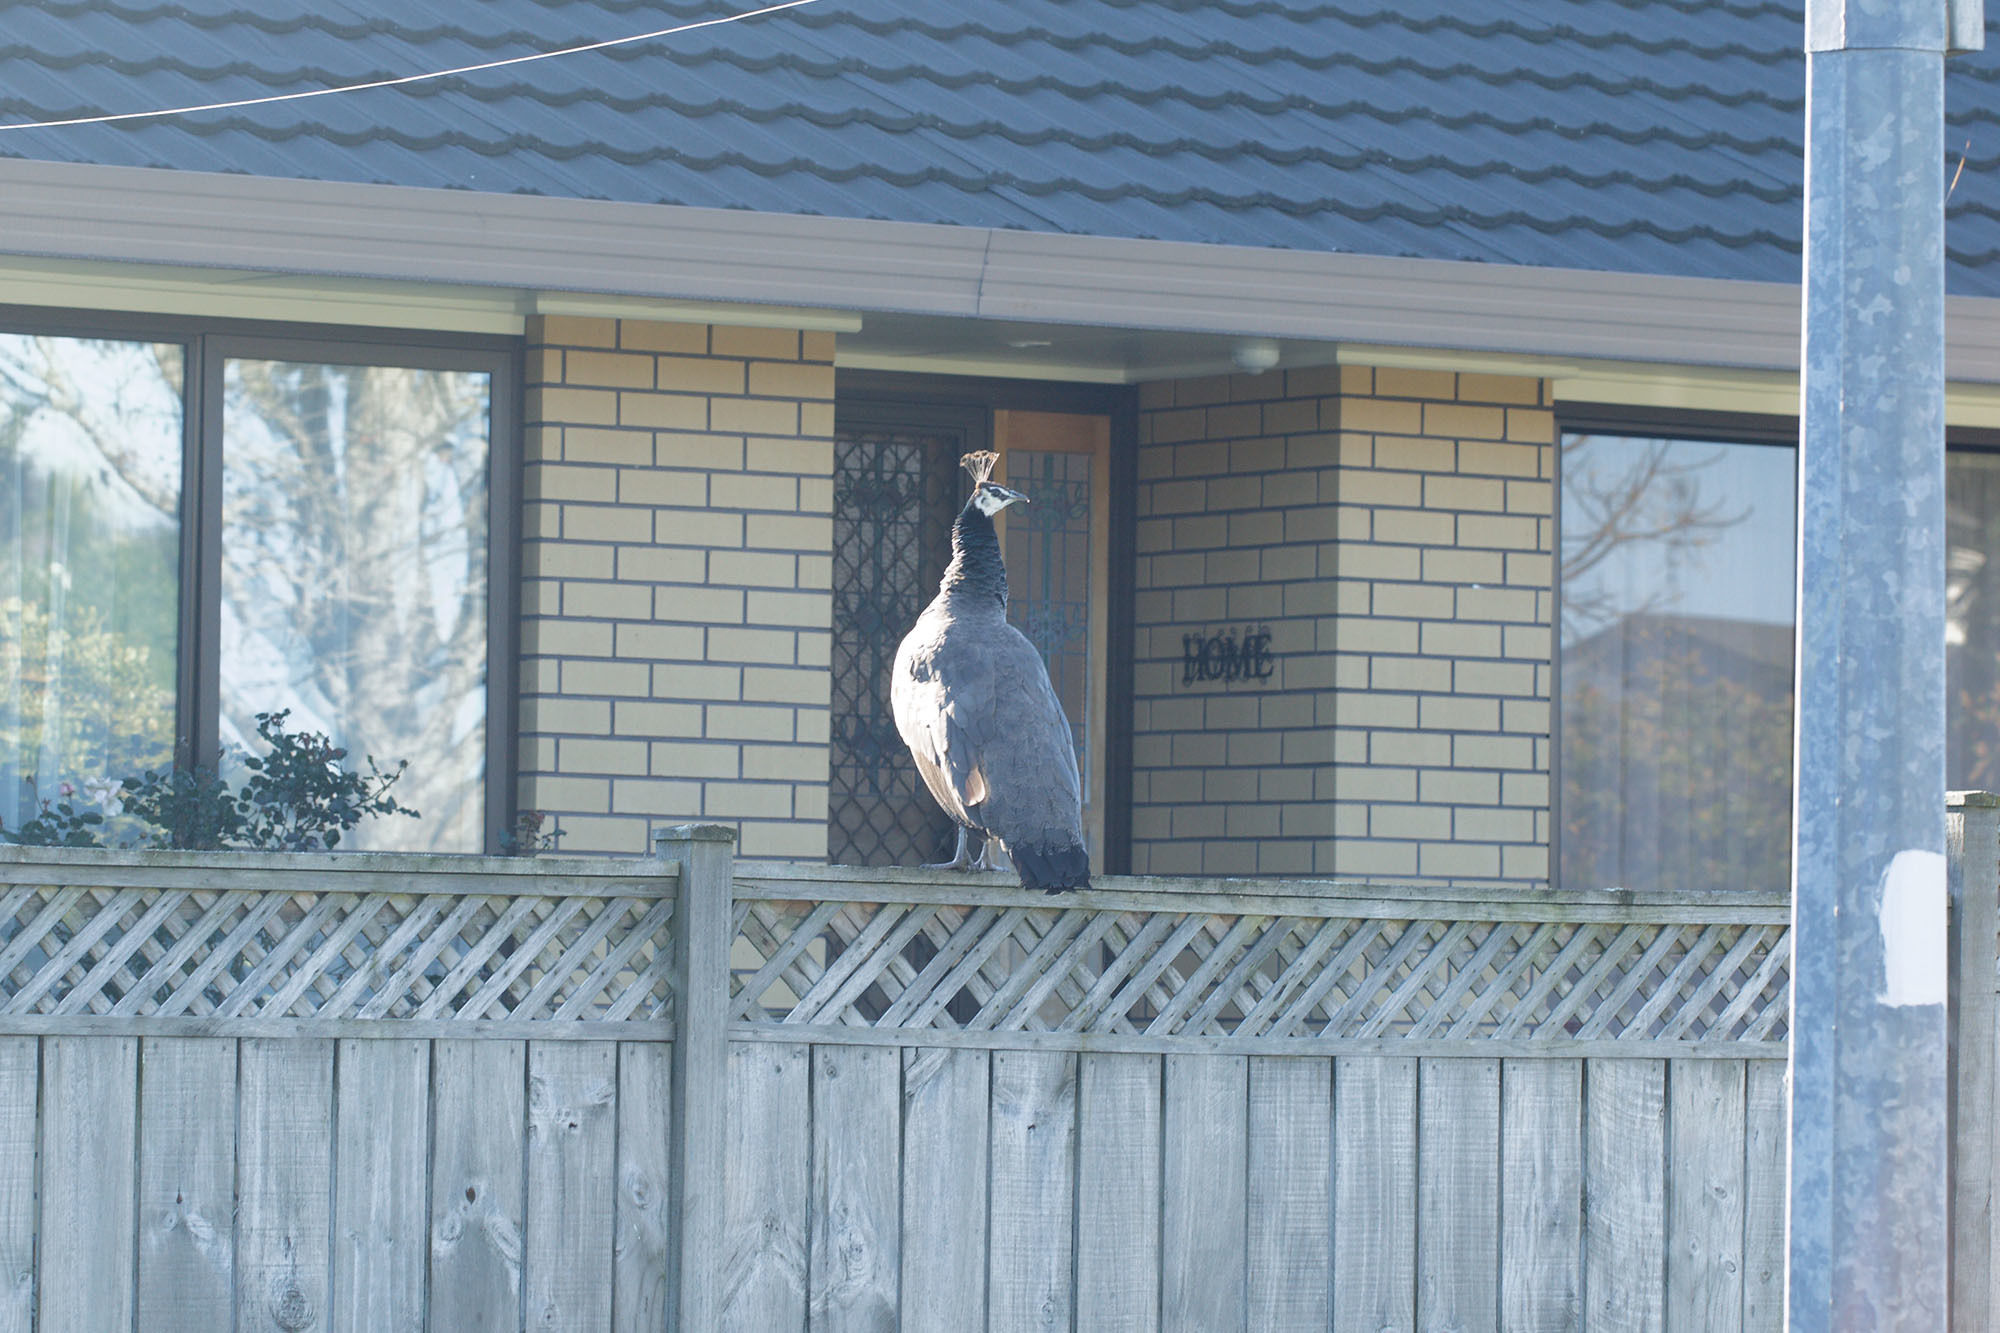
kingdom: Animalia
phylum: Chordata
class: Aves
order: Galliformes
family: Phasianidae
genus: Pavo
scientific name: Pavo cristatus
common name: Indian peafowl
